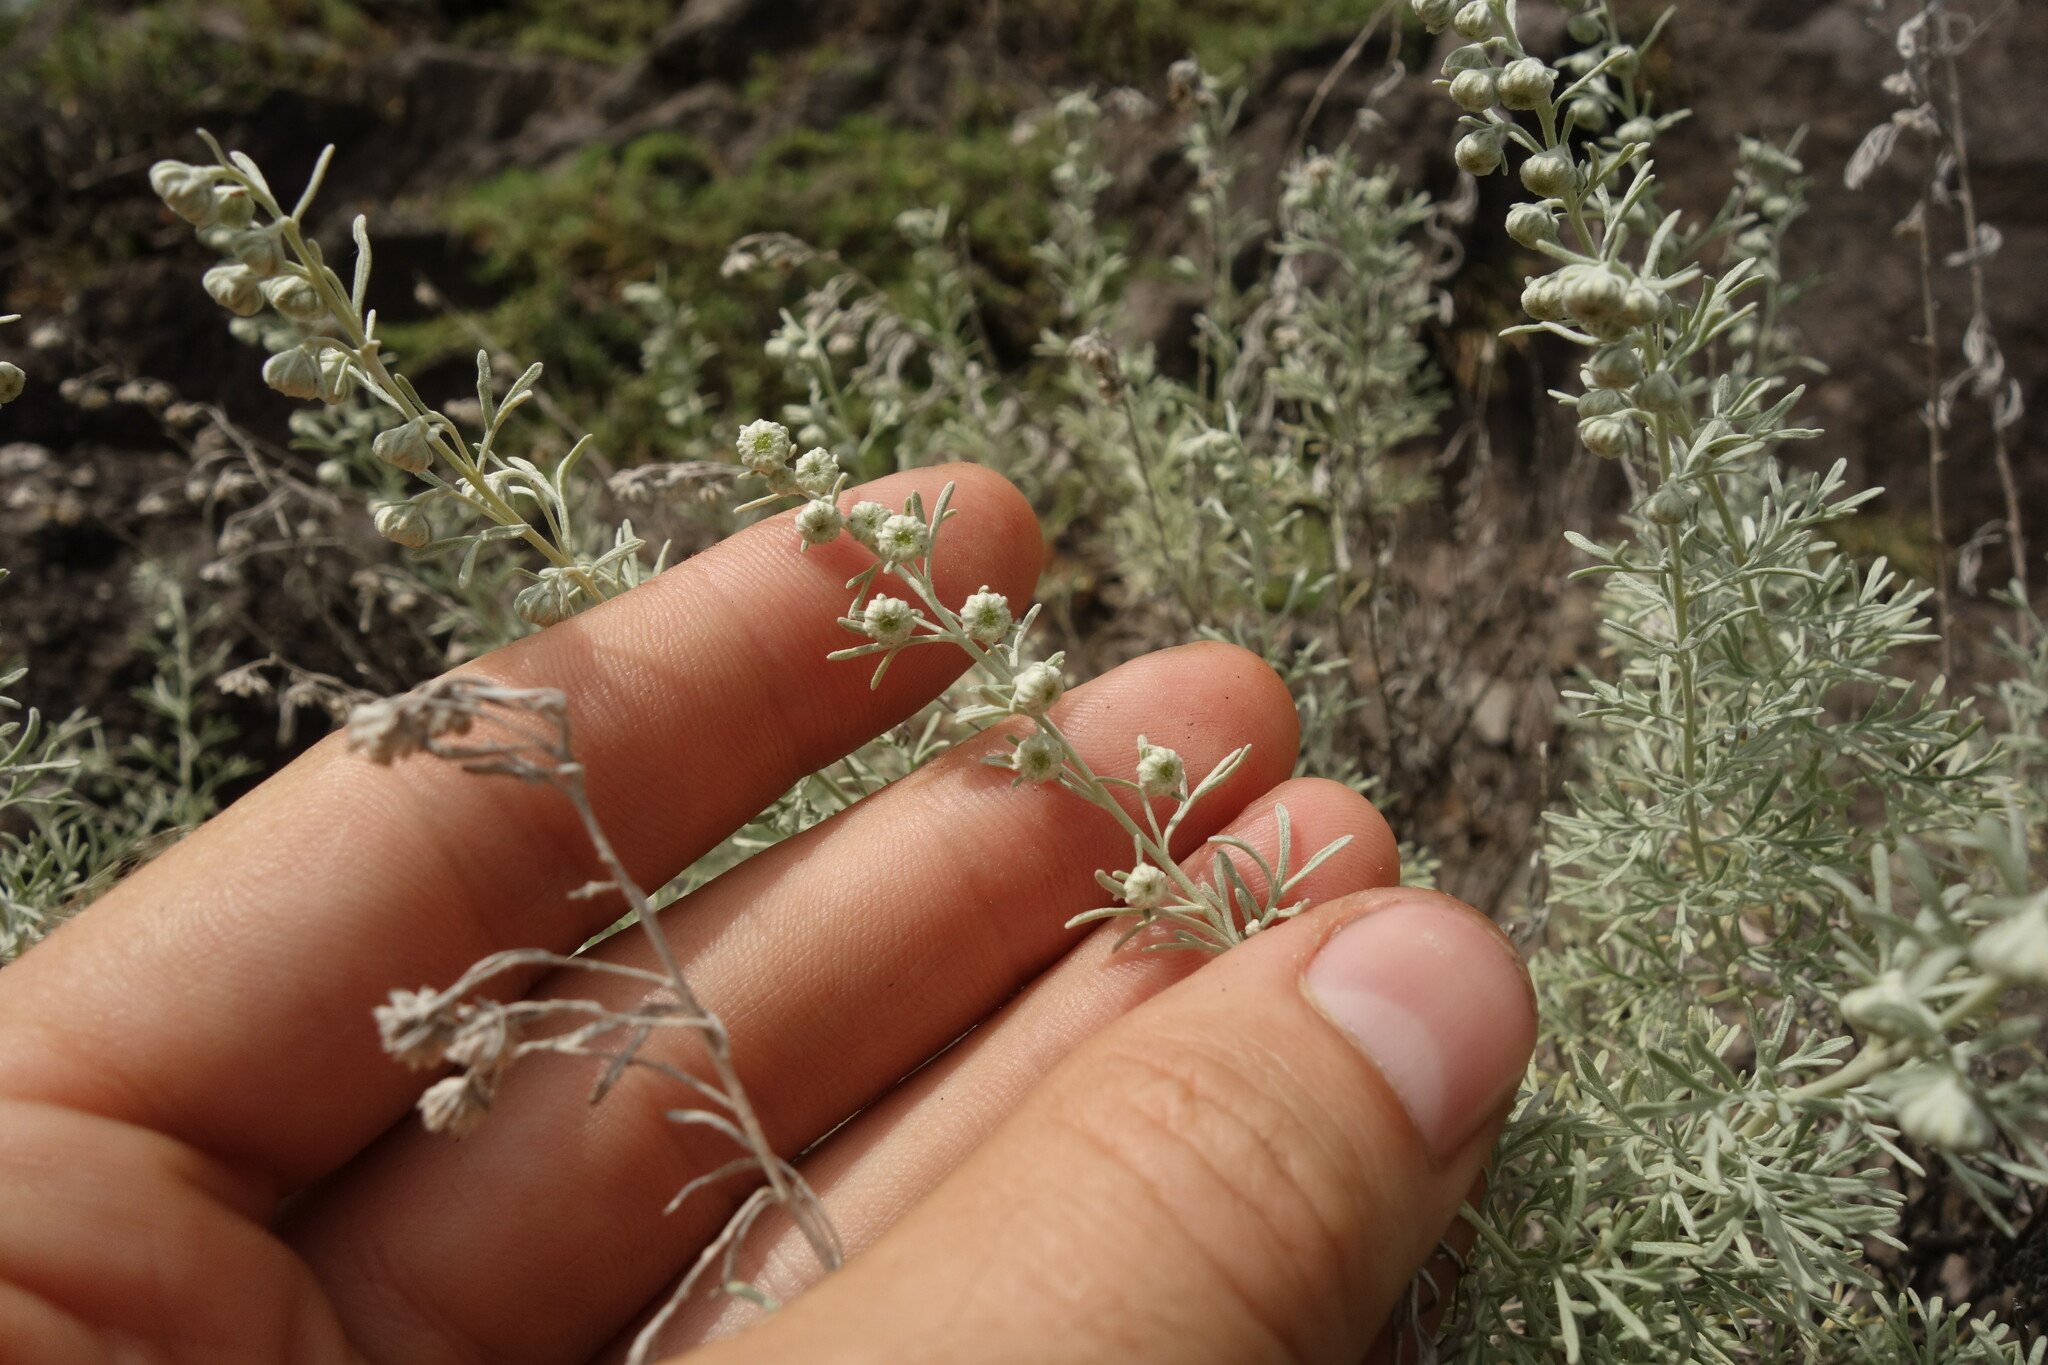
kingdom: Plantae
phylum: Tracheophyta
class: Magnoliopsida
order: Asterales
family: Asteraceae
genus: Artemisia
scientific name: Artemisia rutifolia
